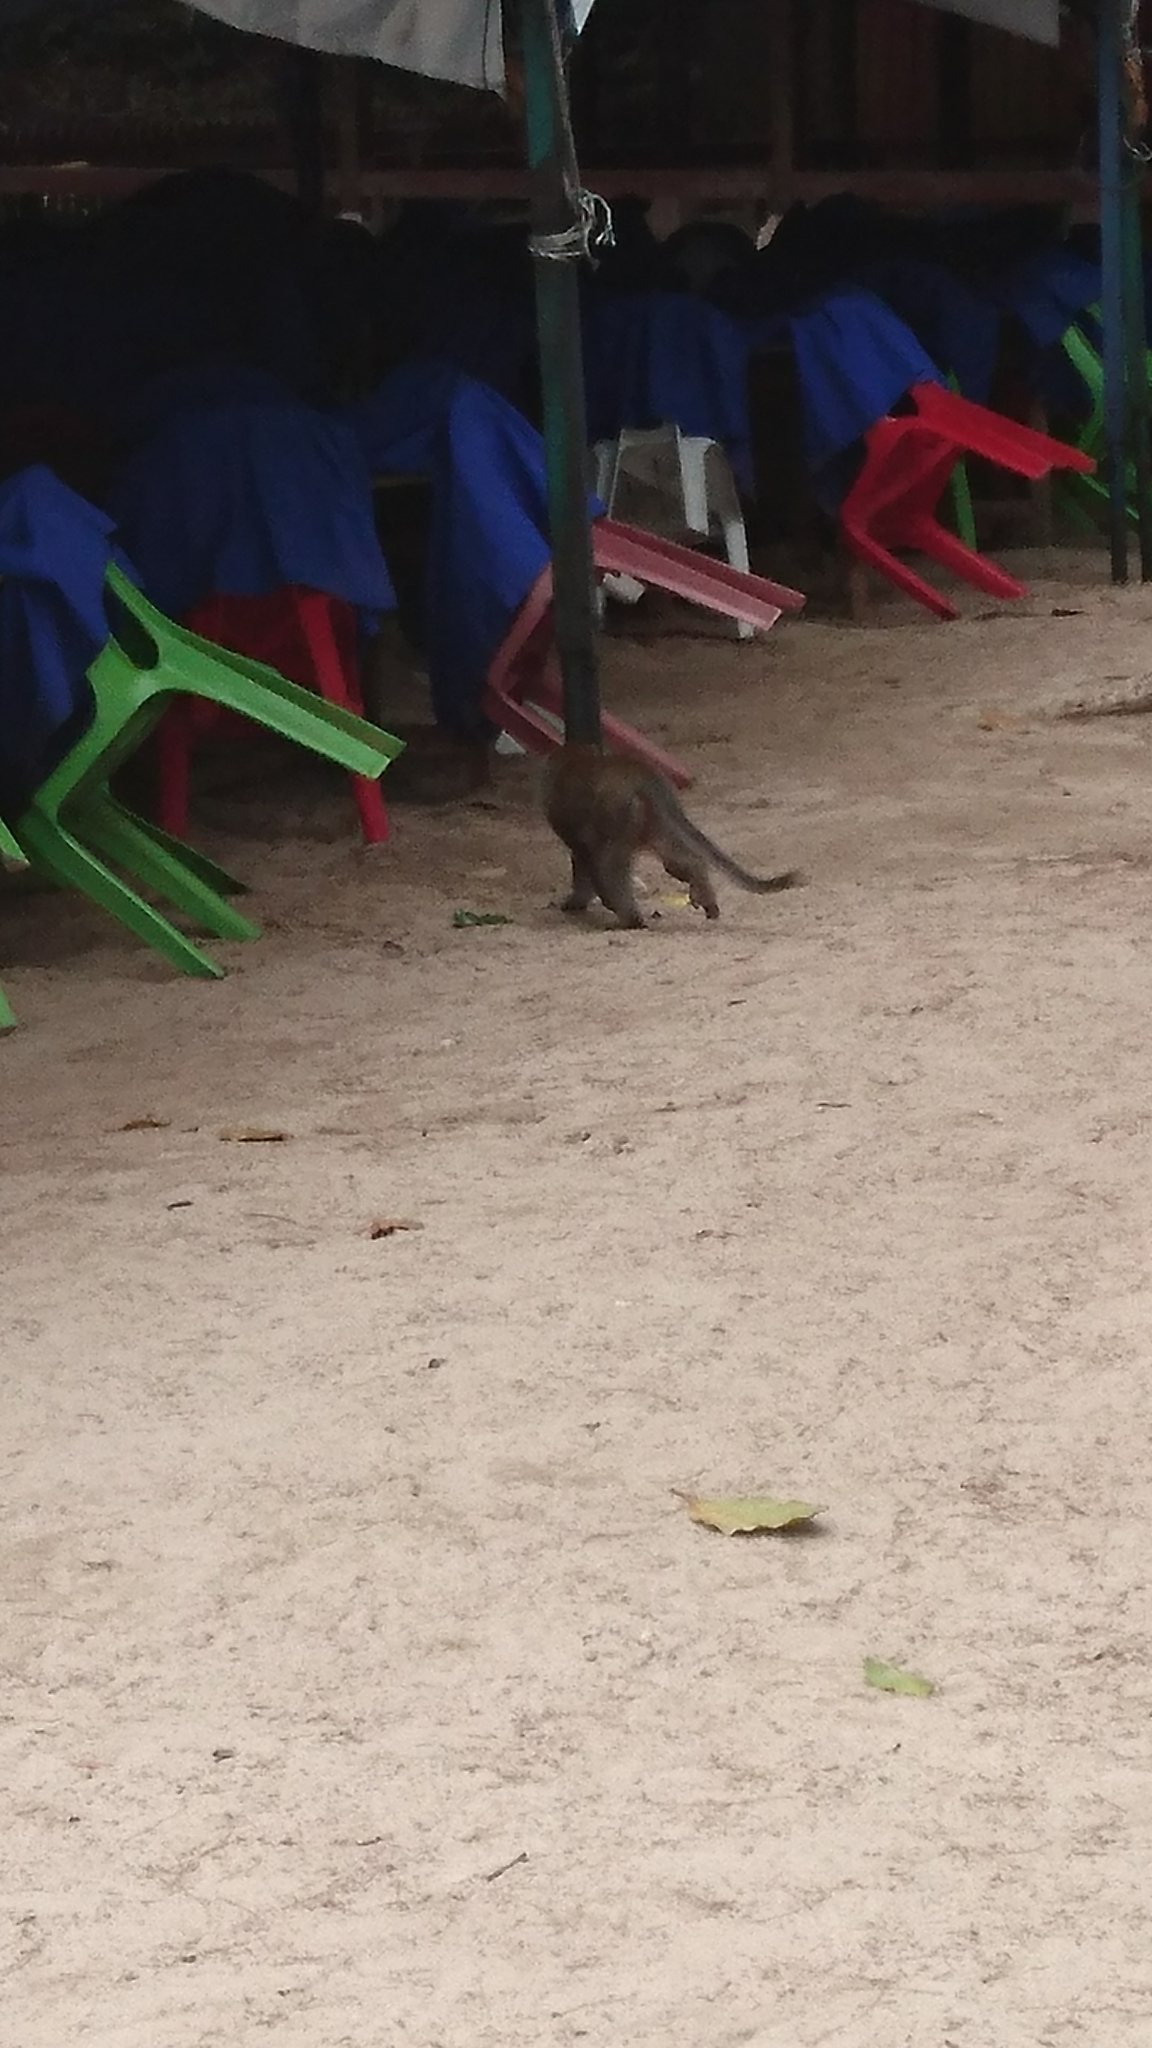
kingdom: Animalia
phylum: Chordata
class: Mammalia
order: Primates
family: Cercopithecidae
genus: Macaca
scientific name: Macaca fascicularis
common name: Crab-eating macaque
